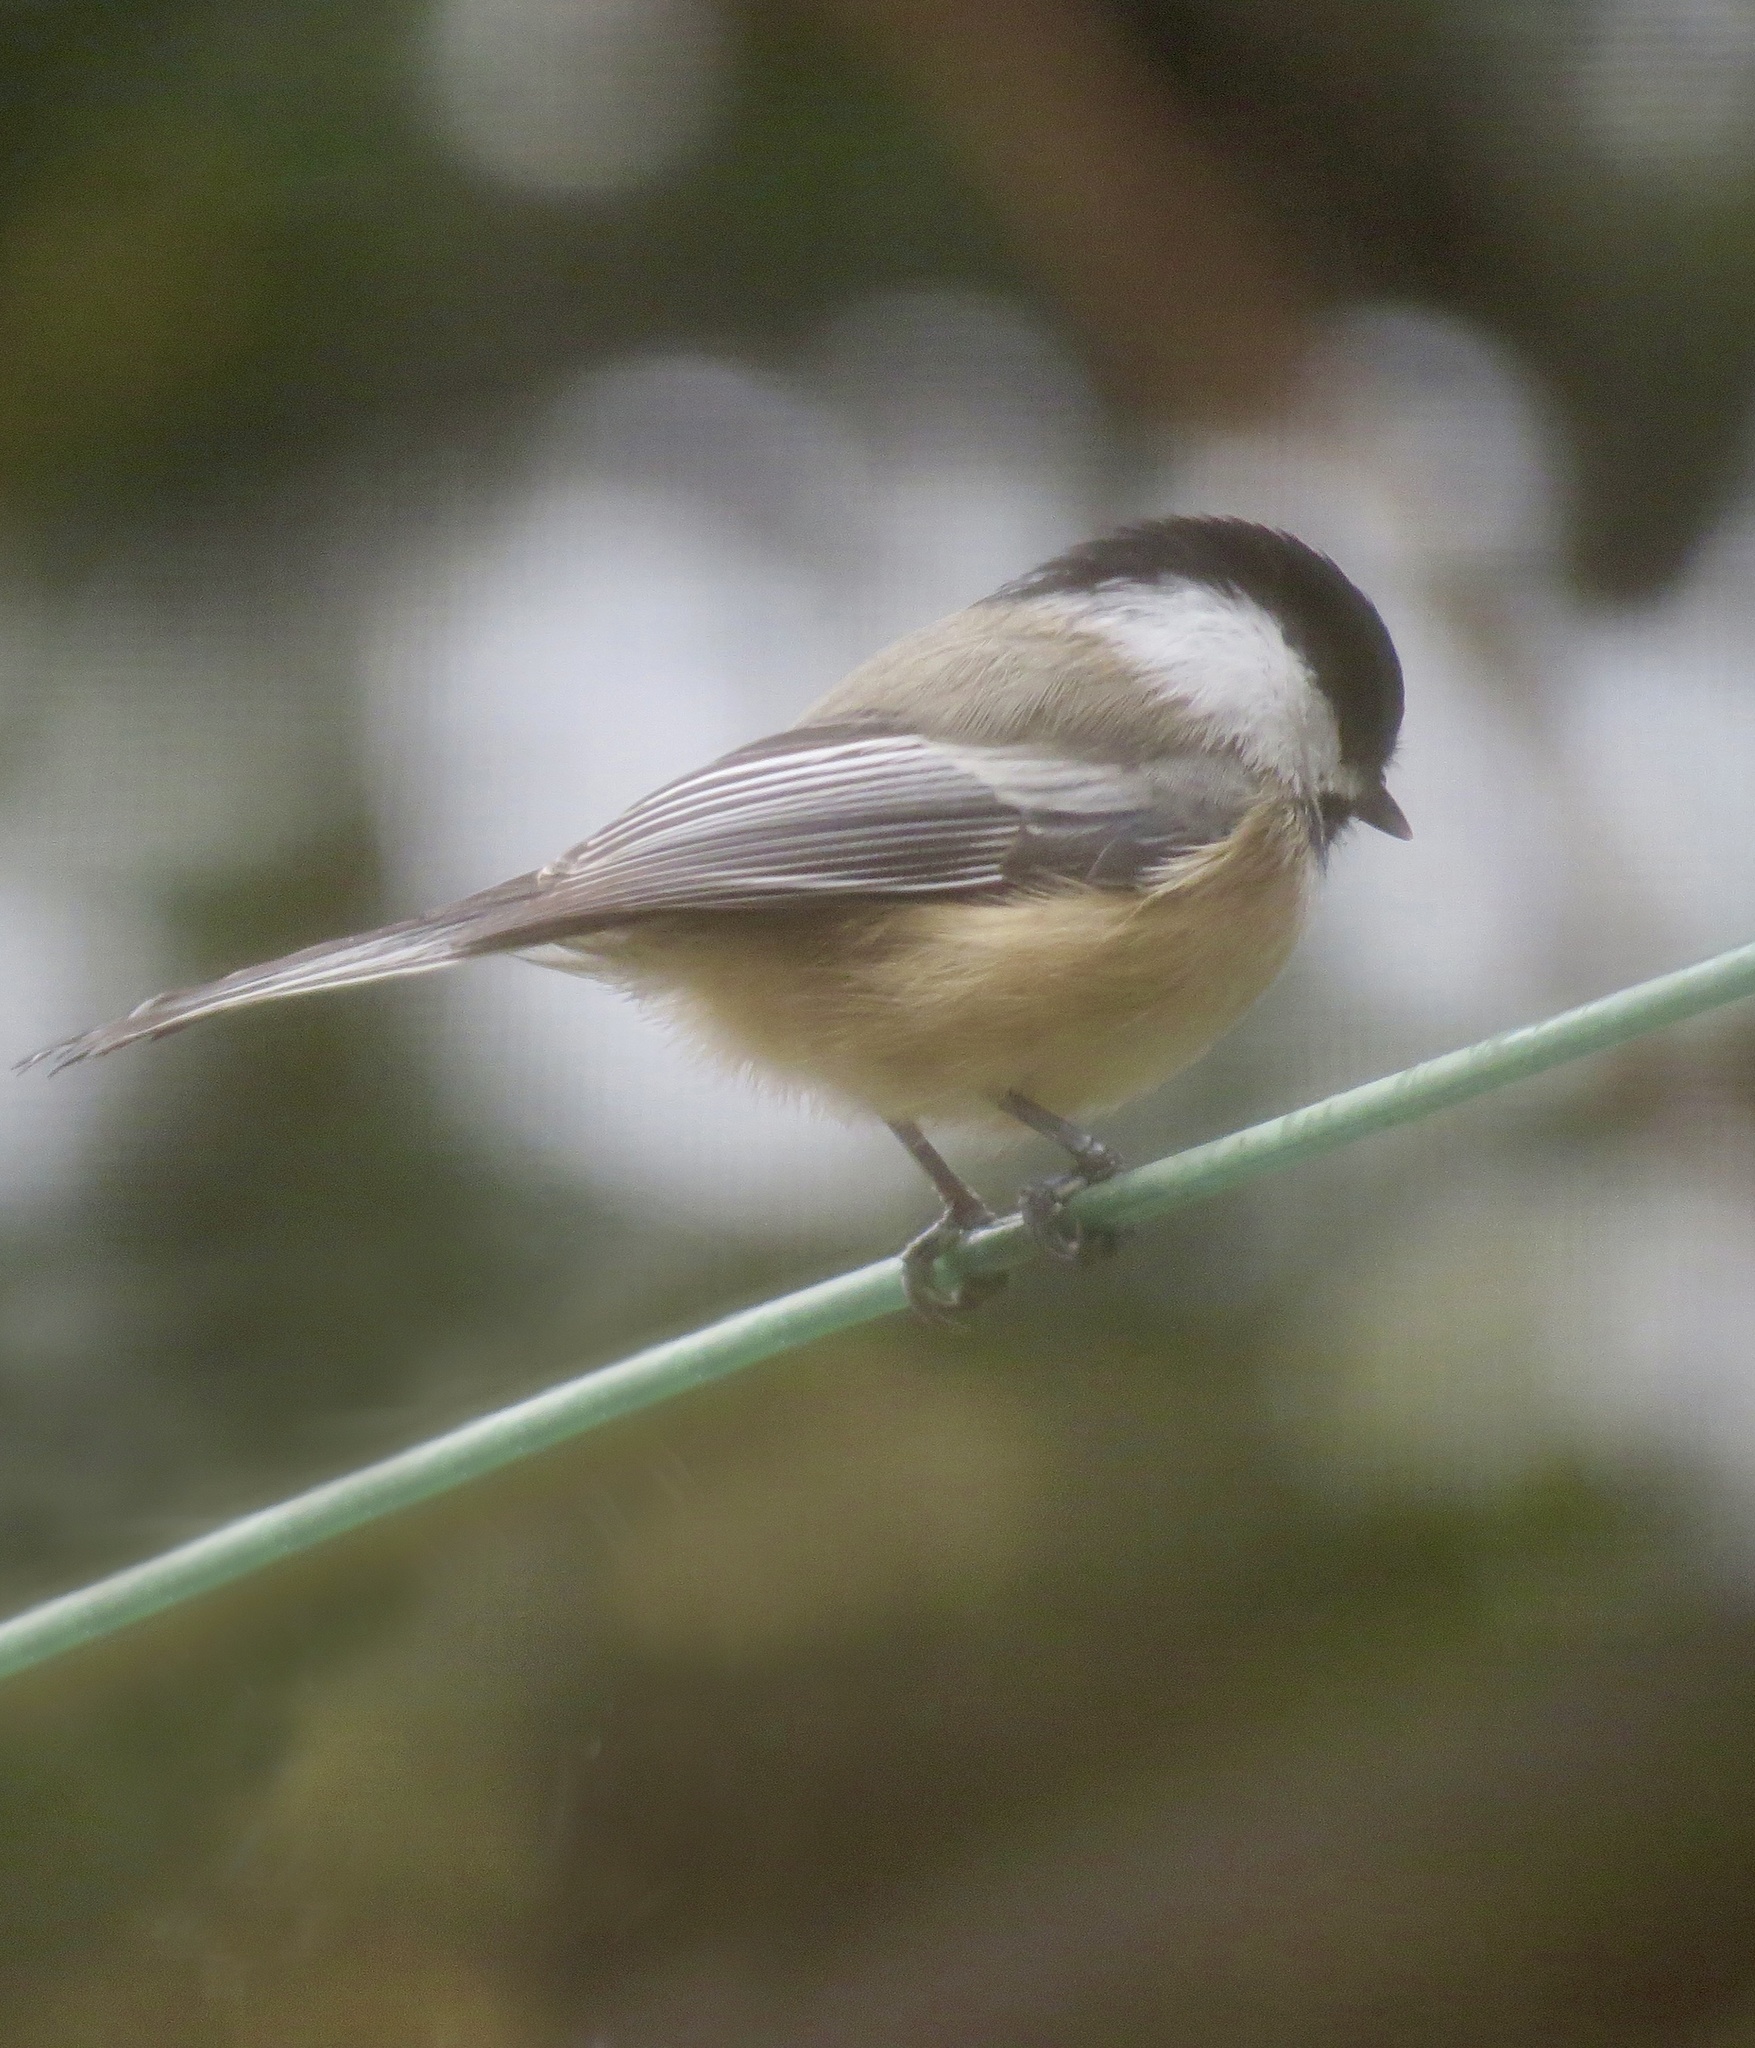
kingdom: Animalia
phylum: Chordata
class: Aves
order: Passeriformes
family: Paridae
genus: Poecile
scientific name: Poecile atricapillus
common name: Black-capped chickadee
